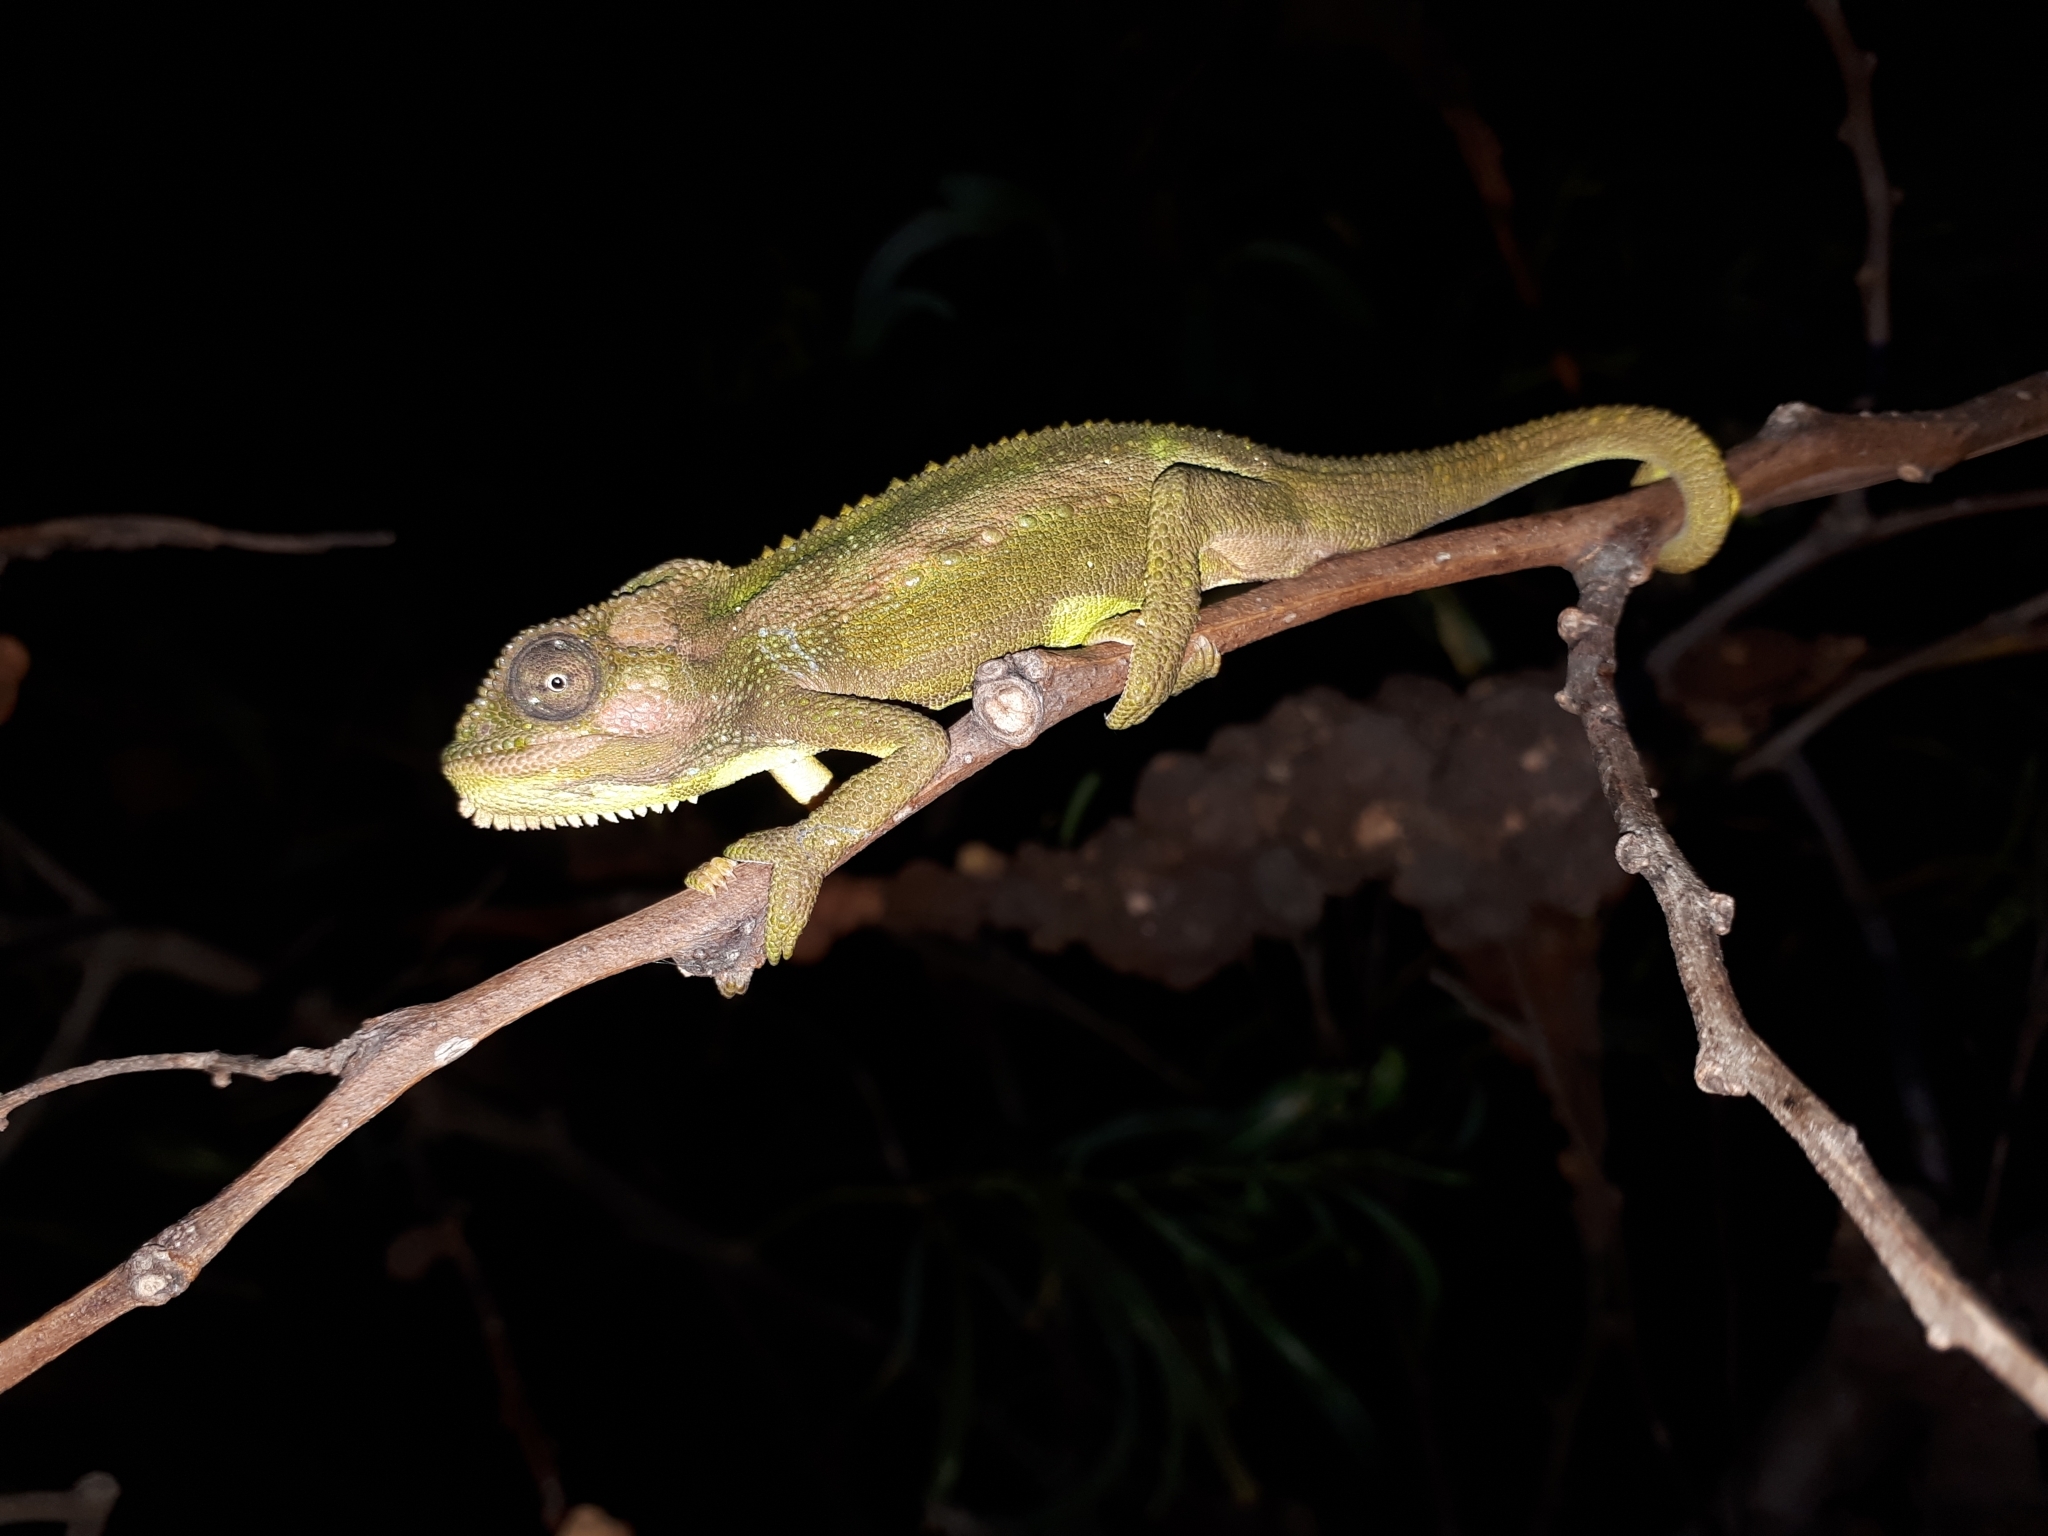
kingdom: Animalia
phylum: Chordata
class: Squamata
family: Chamaeleonidae
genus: Bradypodion
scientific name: Bradypodion pumilum
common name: Cape dwarf chameleon
